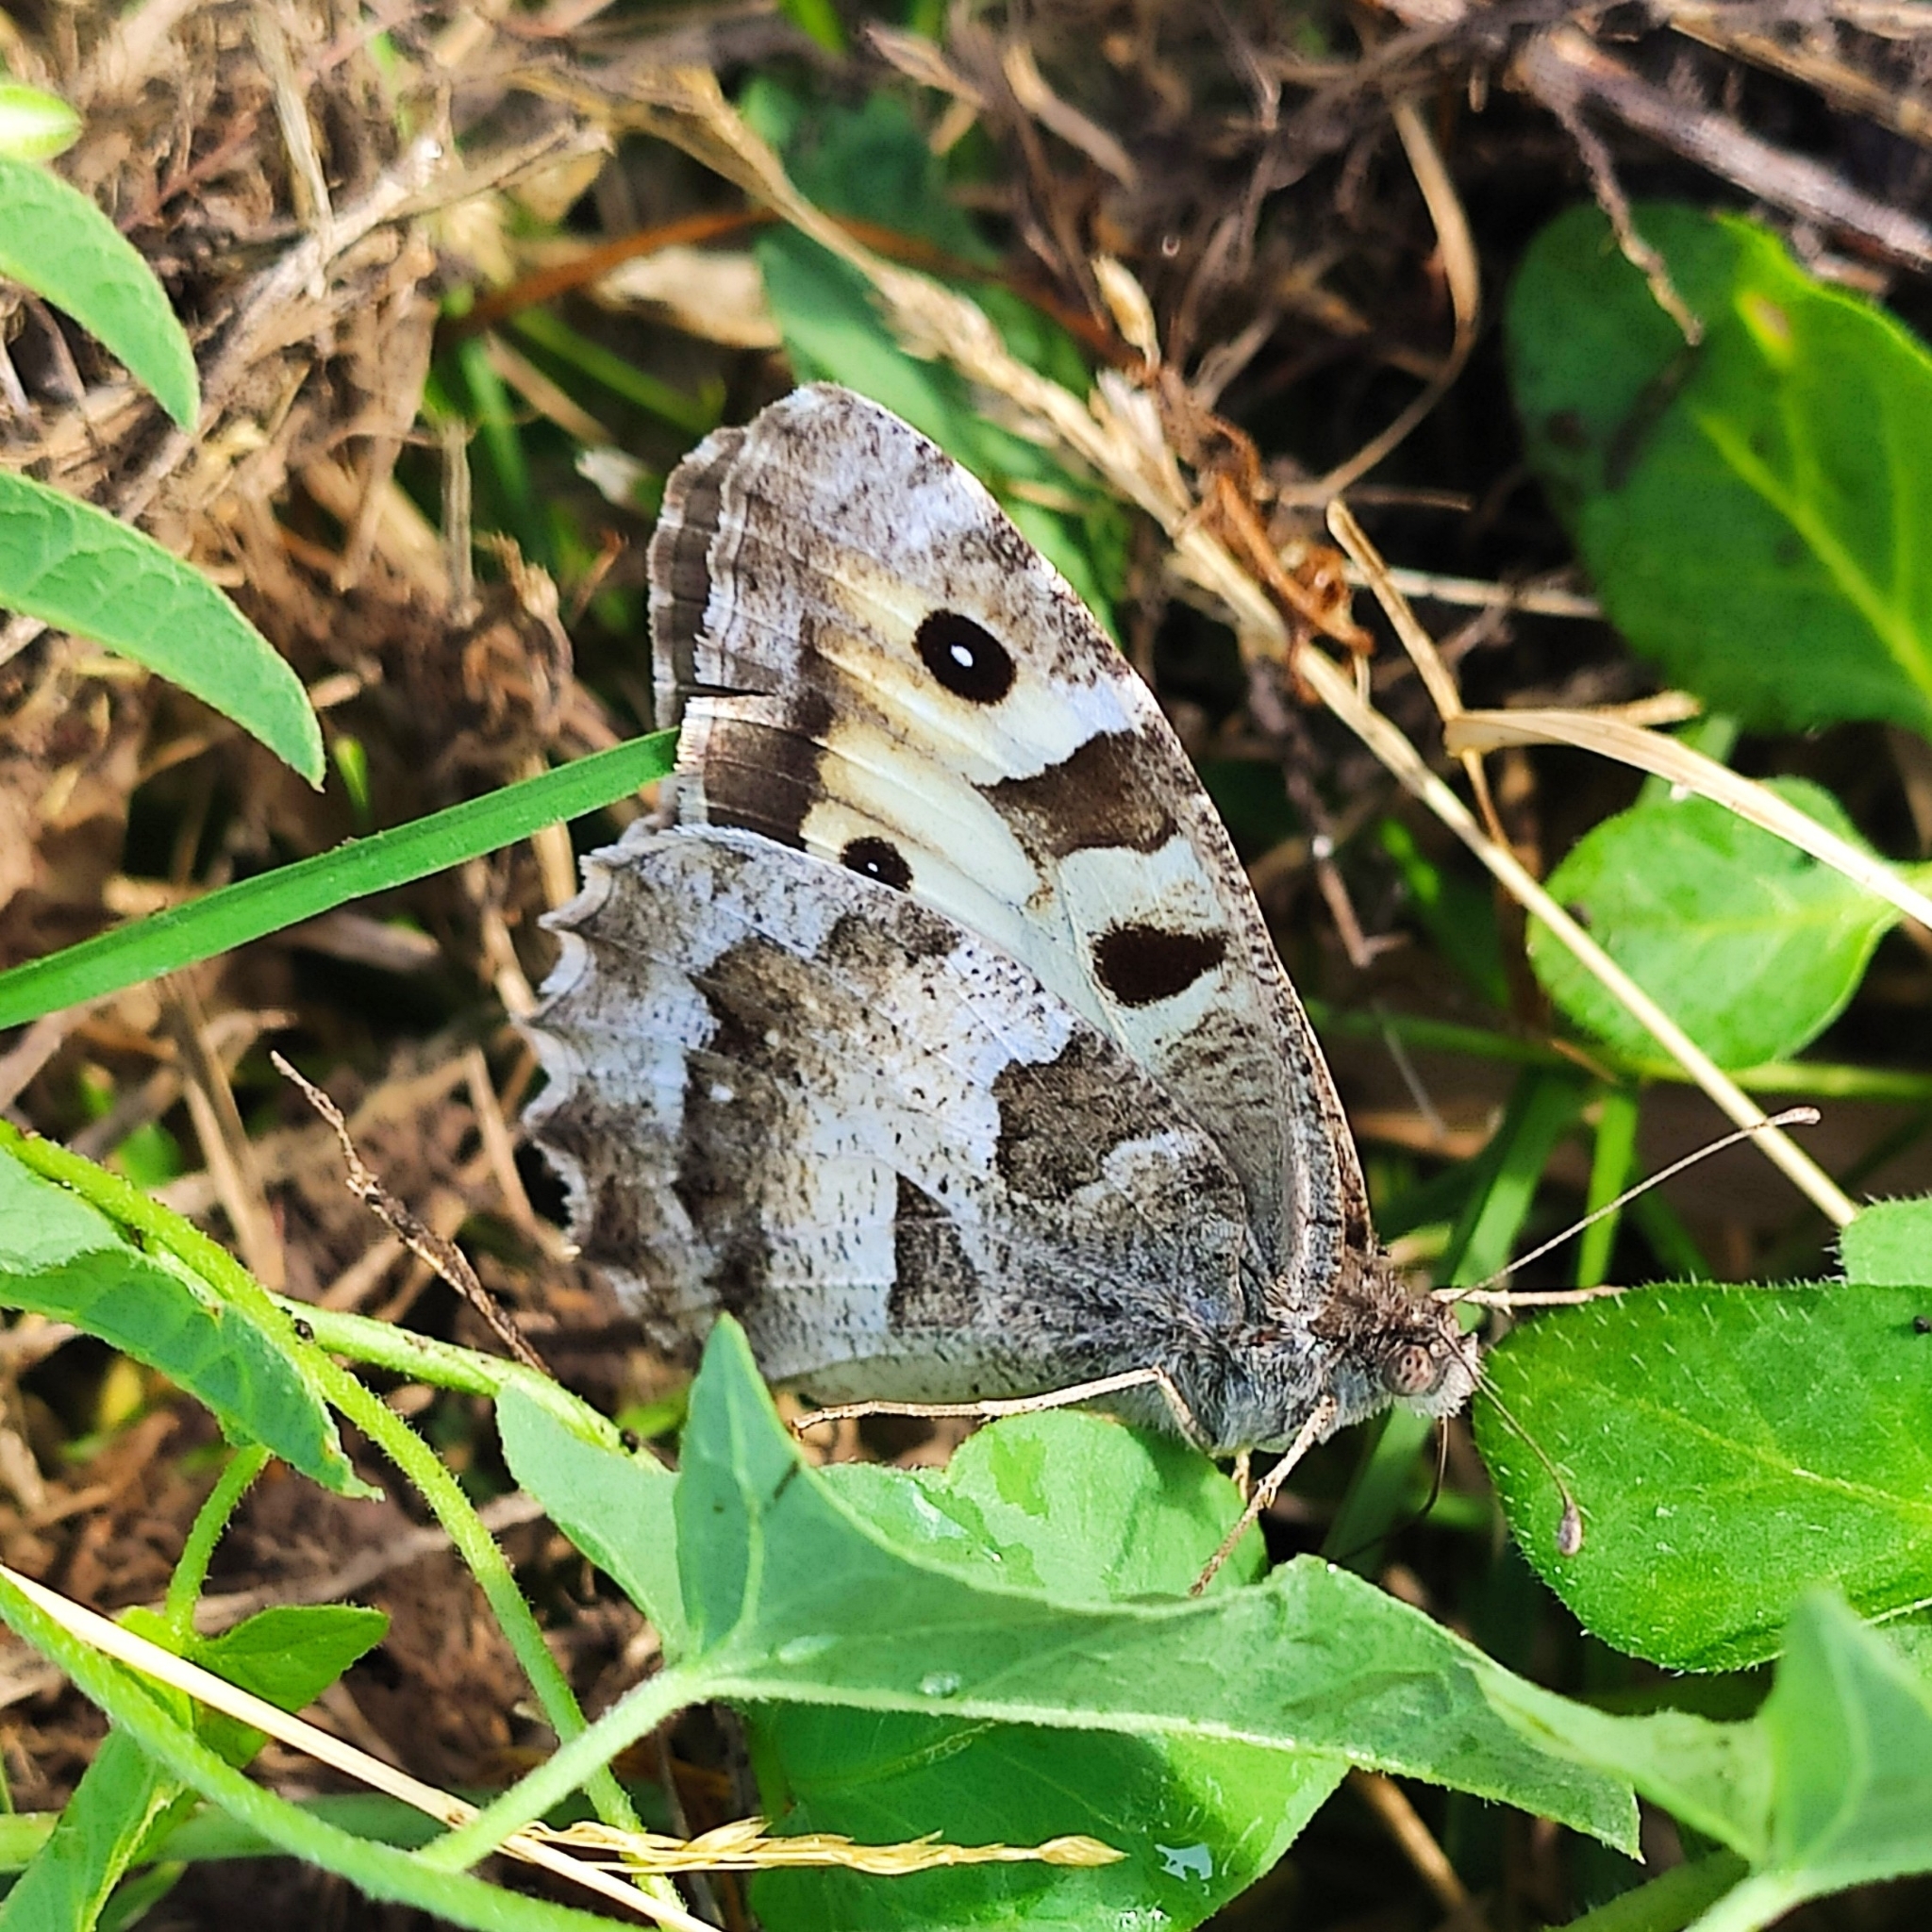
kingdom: Animalia
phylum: Arthropoda
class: Insecta
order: Lepidoptera
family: Nymphalidae
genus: Satyrus
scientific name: Satyrus briseis
